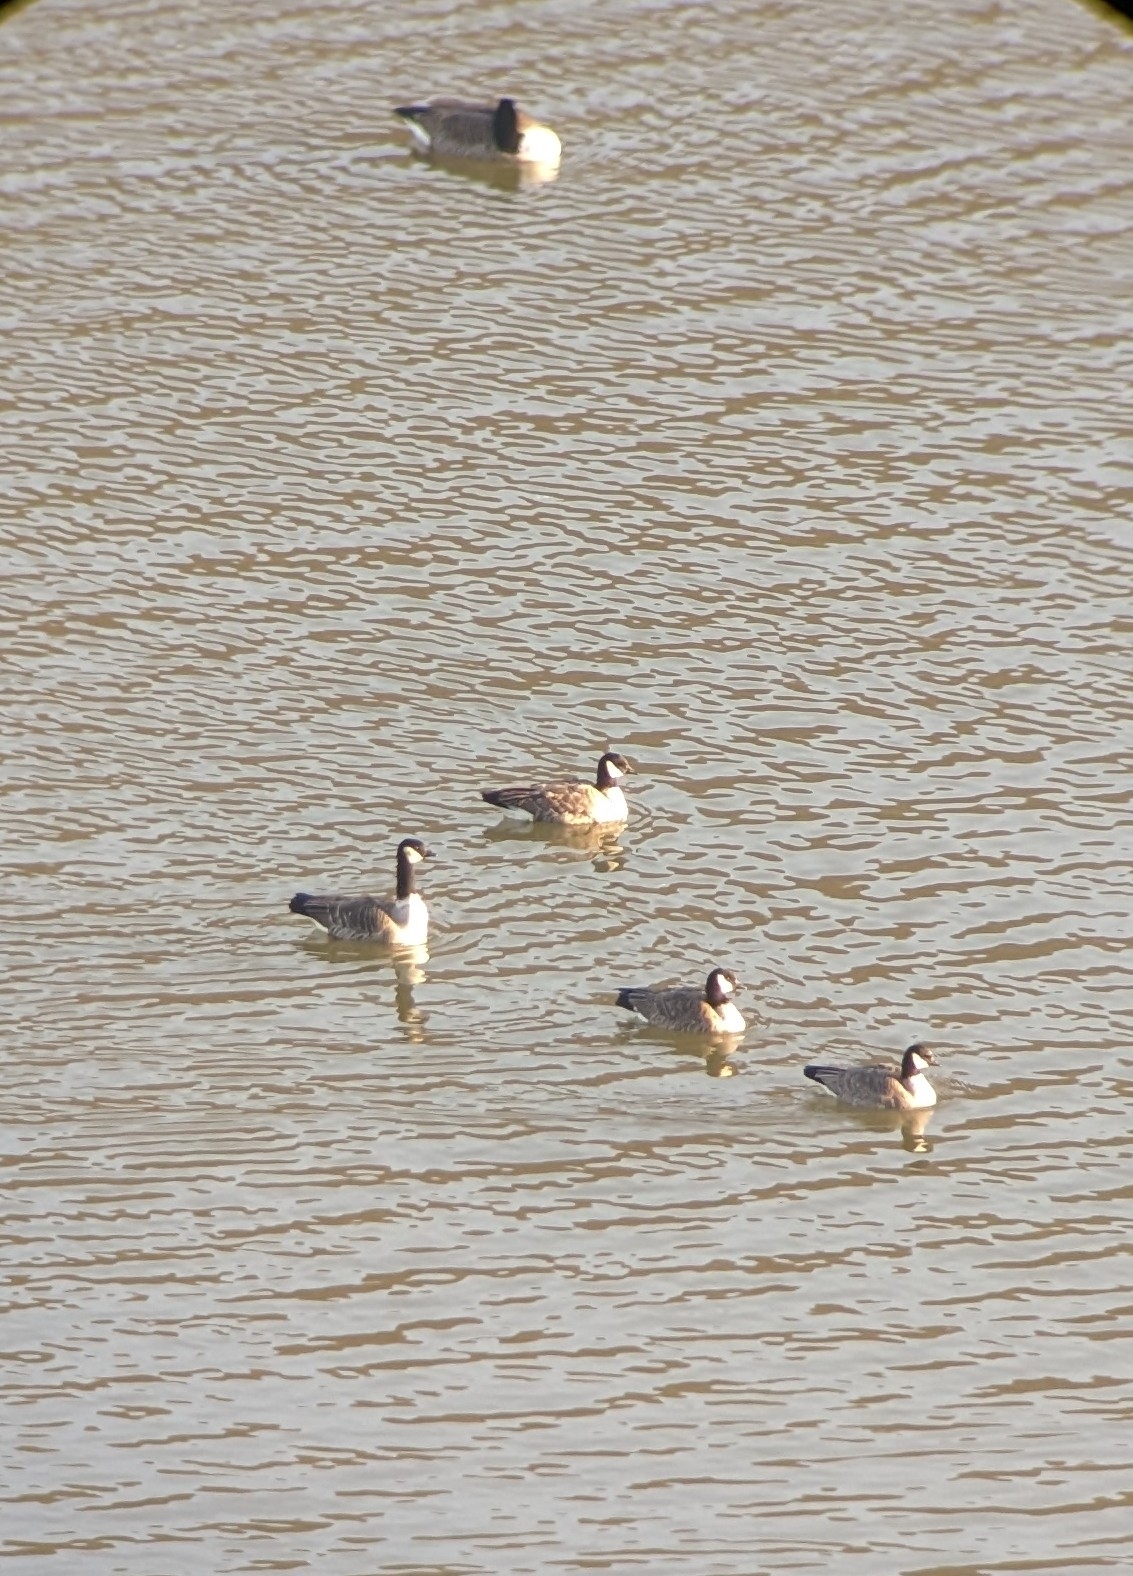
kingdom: Animalia
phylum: Chordata
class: Aves
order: Anseriformes
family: Anatidae
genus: Branta
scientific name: Branta hutchinsii
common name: Cackling goose
